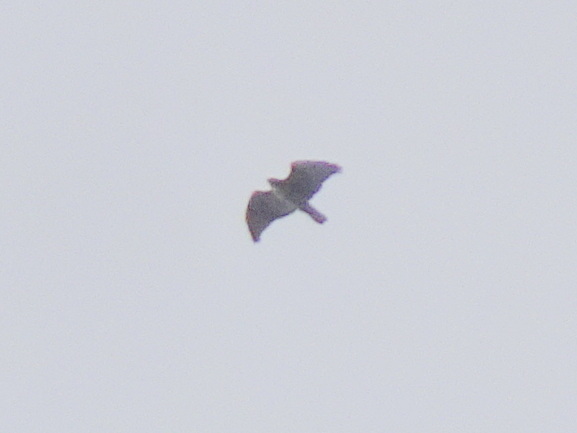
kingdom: Animalia
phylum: Chordata
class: Aves
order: Accipitriformes
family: Accipitridae
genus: Buteo
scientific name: Buteo jamaicensis
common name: Red-tailed hawk
